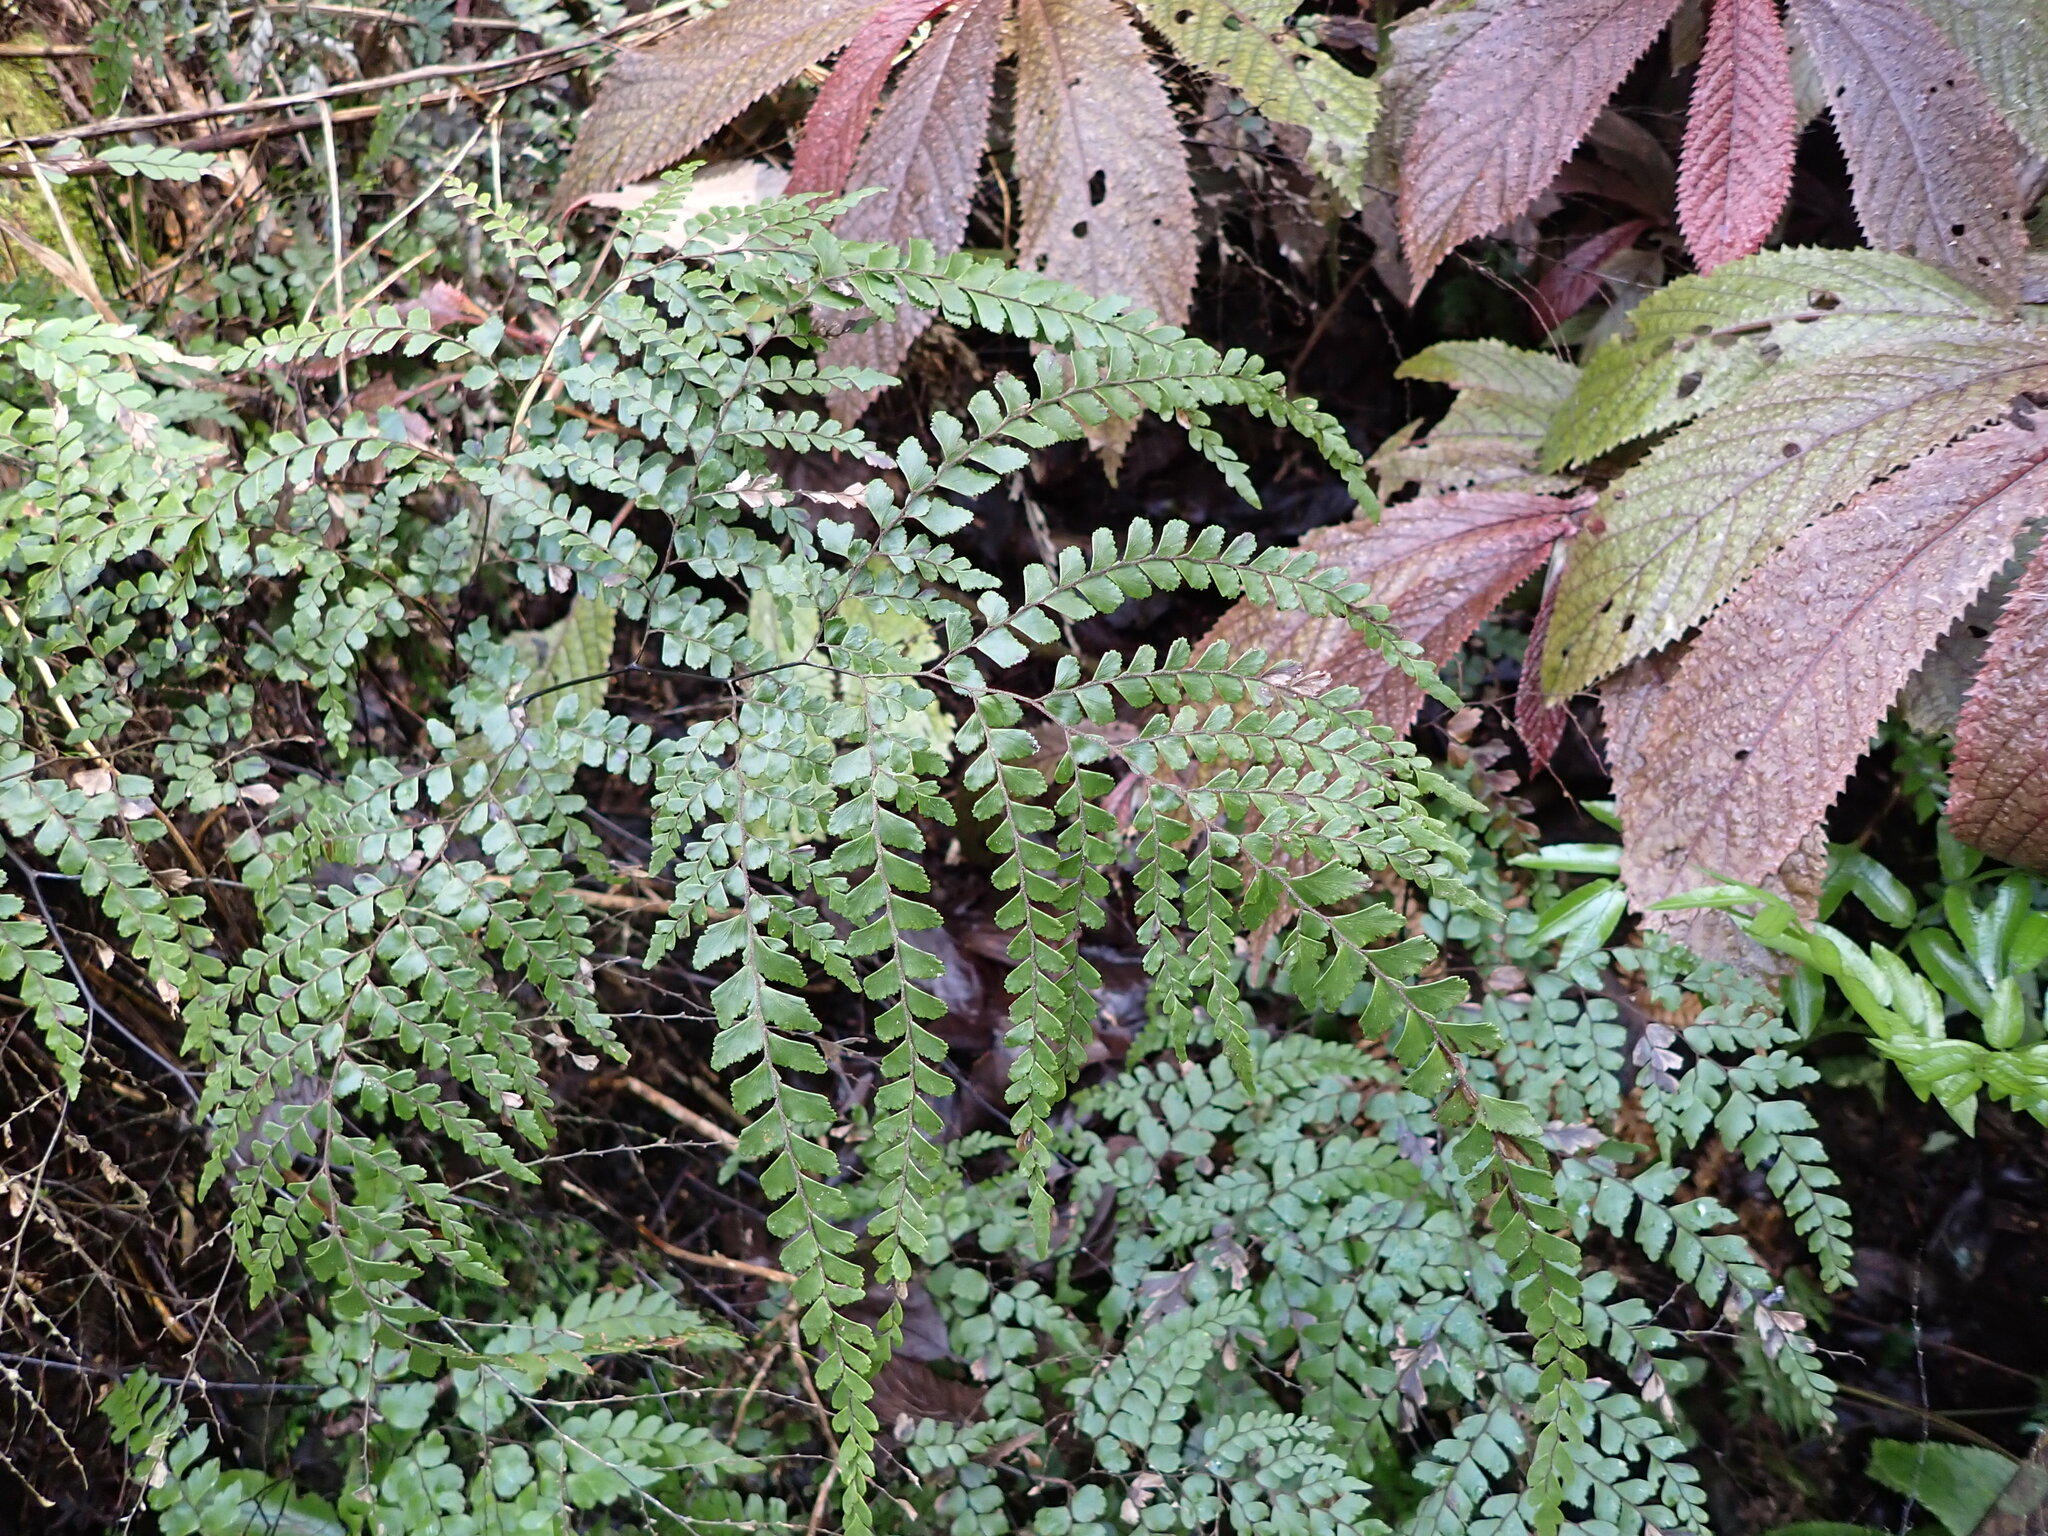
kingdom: Plantae
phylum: Tracheophyta
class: Polypodiopsida
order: Polypodiales
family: Pteridaceae
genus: Adiantum
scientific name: Adiantum formosum
